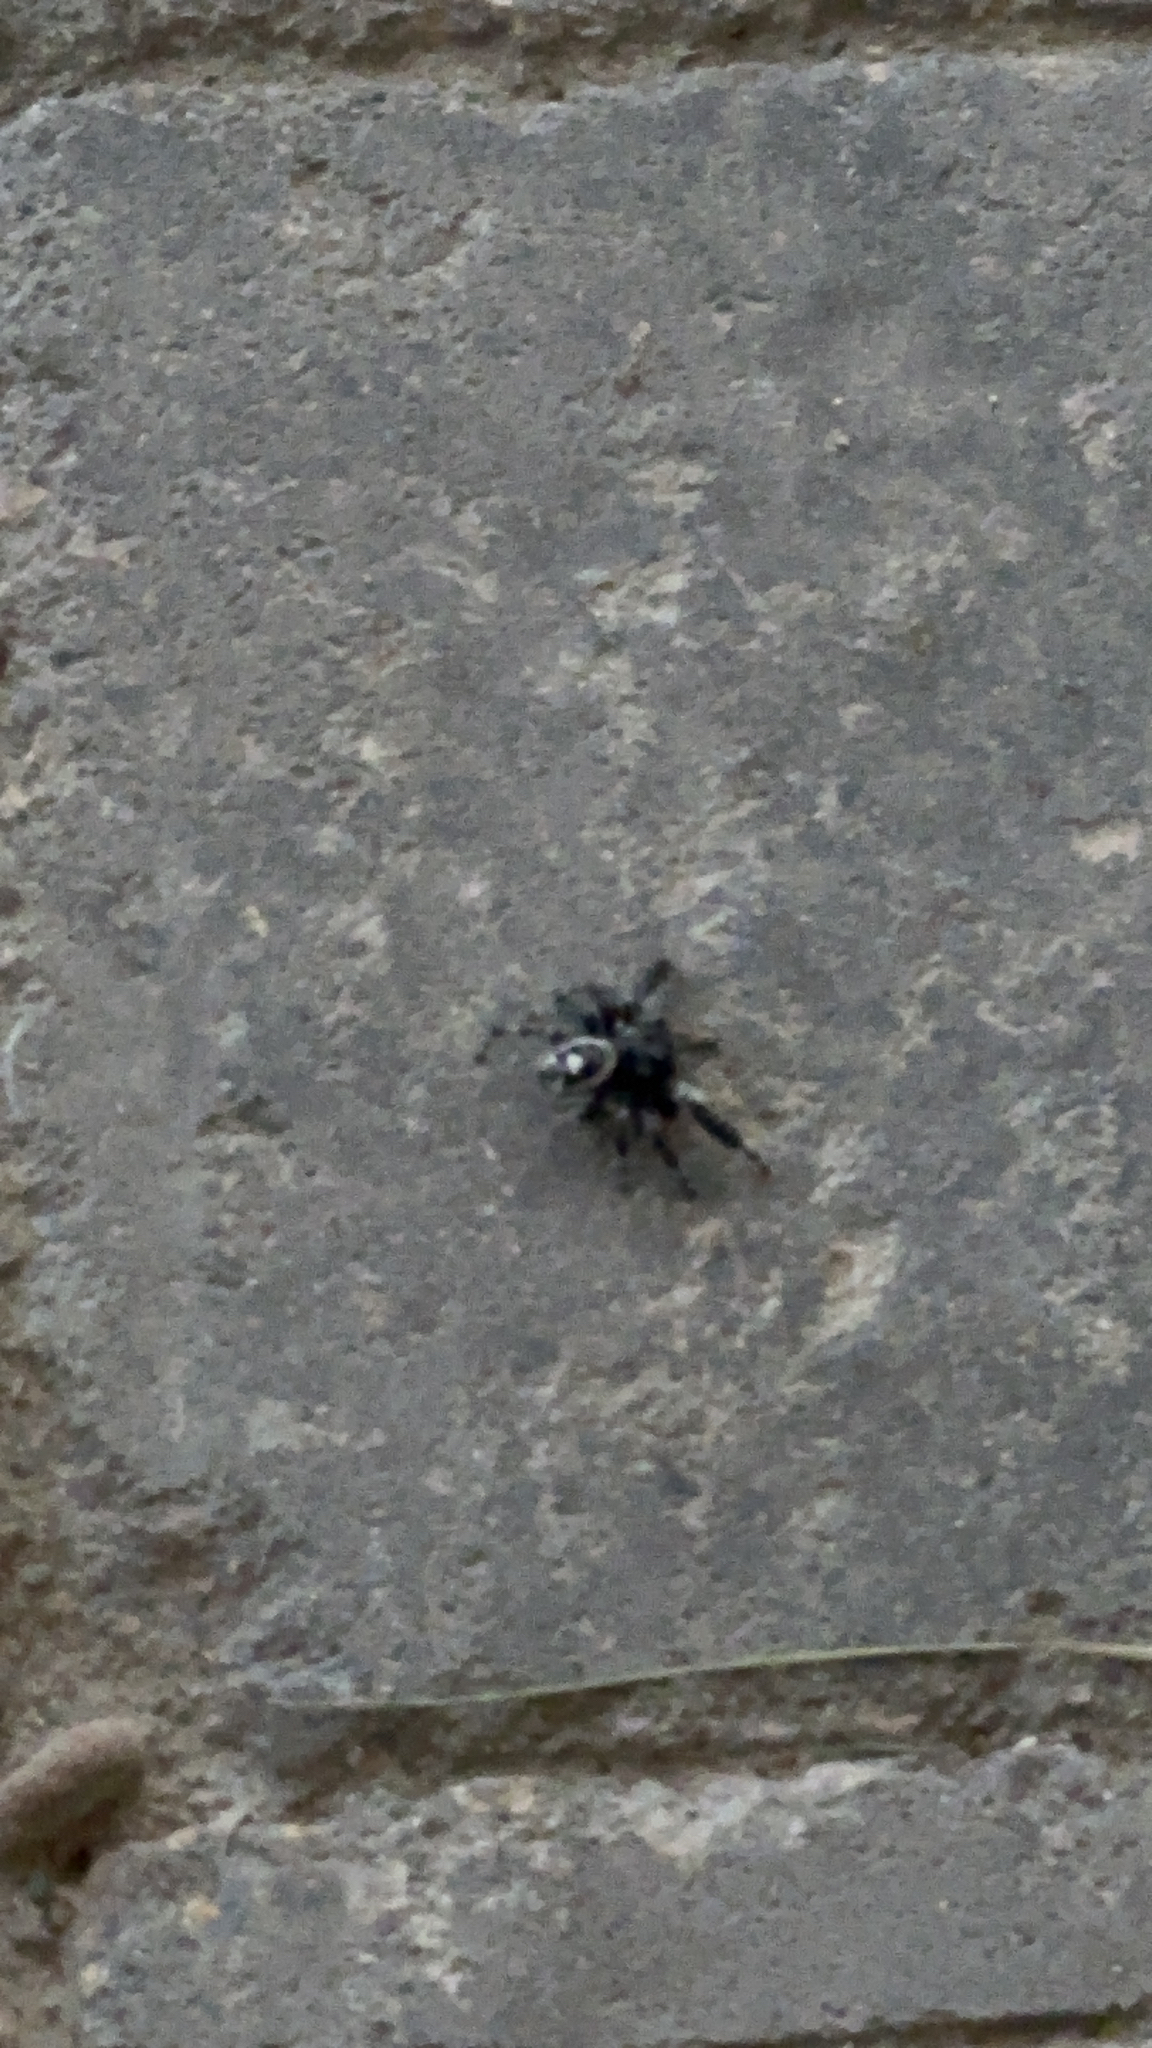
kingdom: Animalia
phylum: Arthropoda
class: Arachnida
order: Araneae
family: Salticidae
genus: Phidippus
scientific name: Phidippus audax
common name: Bold jumper
